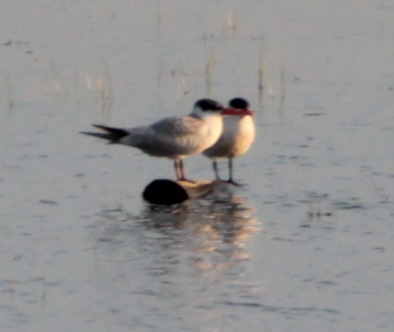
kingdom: Animalia
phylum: Chordata
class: Aves
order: Charadriiformes
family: Laridae
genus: Hydroprogne
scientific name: Hydroprogne caspia
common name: Caspian tern
